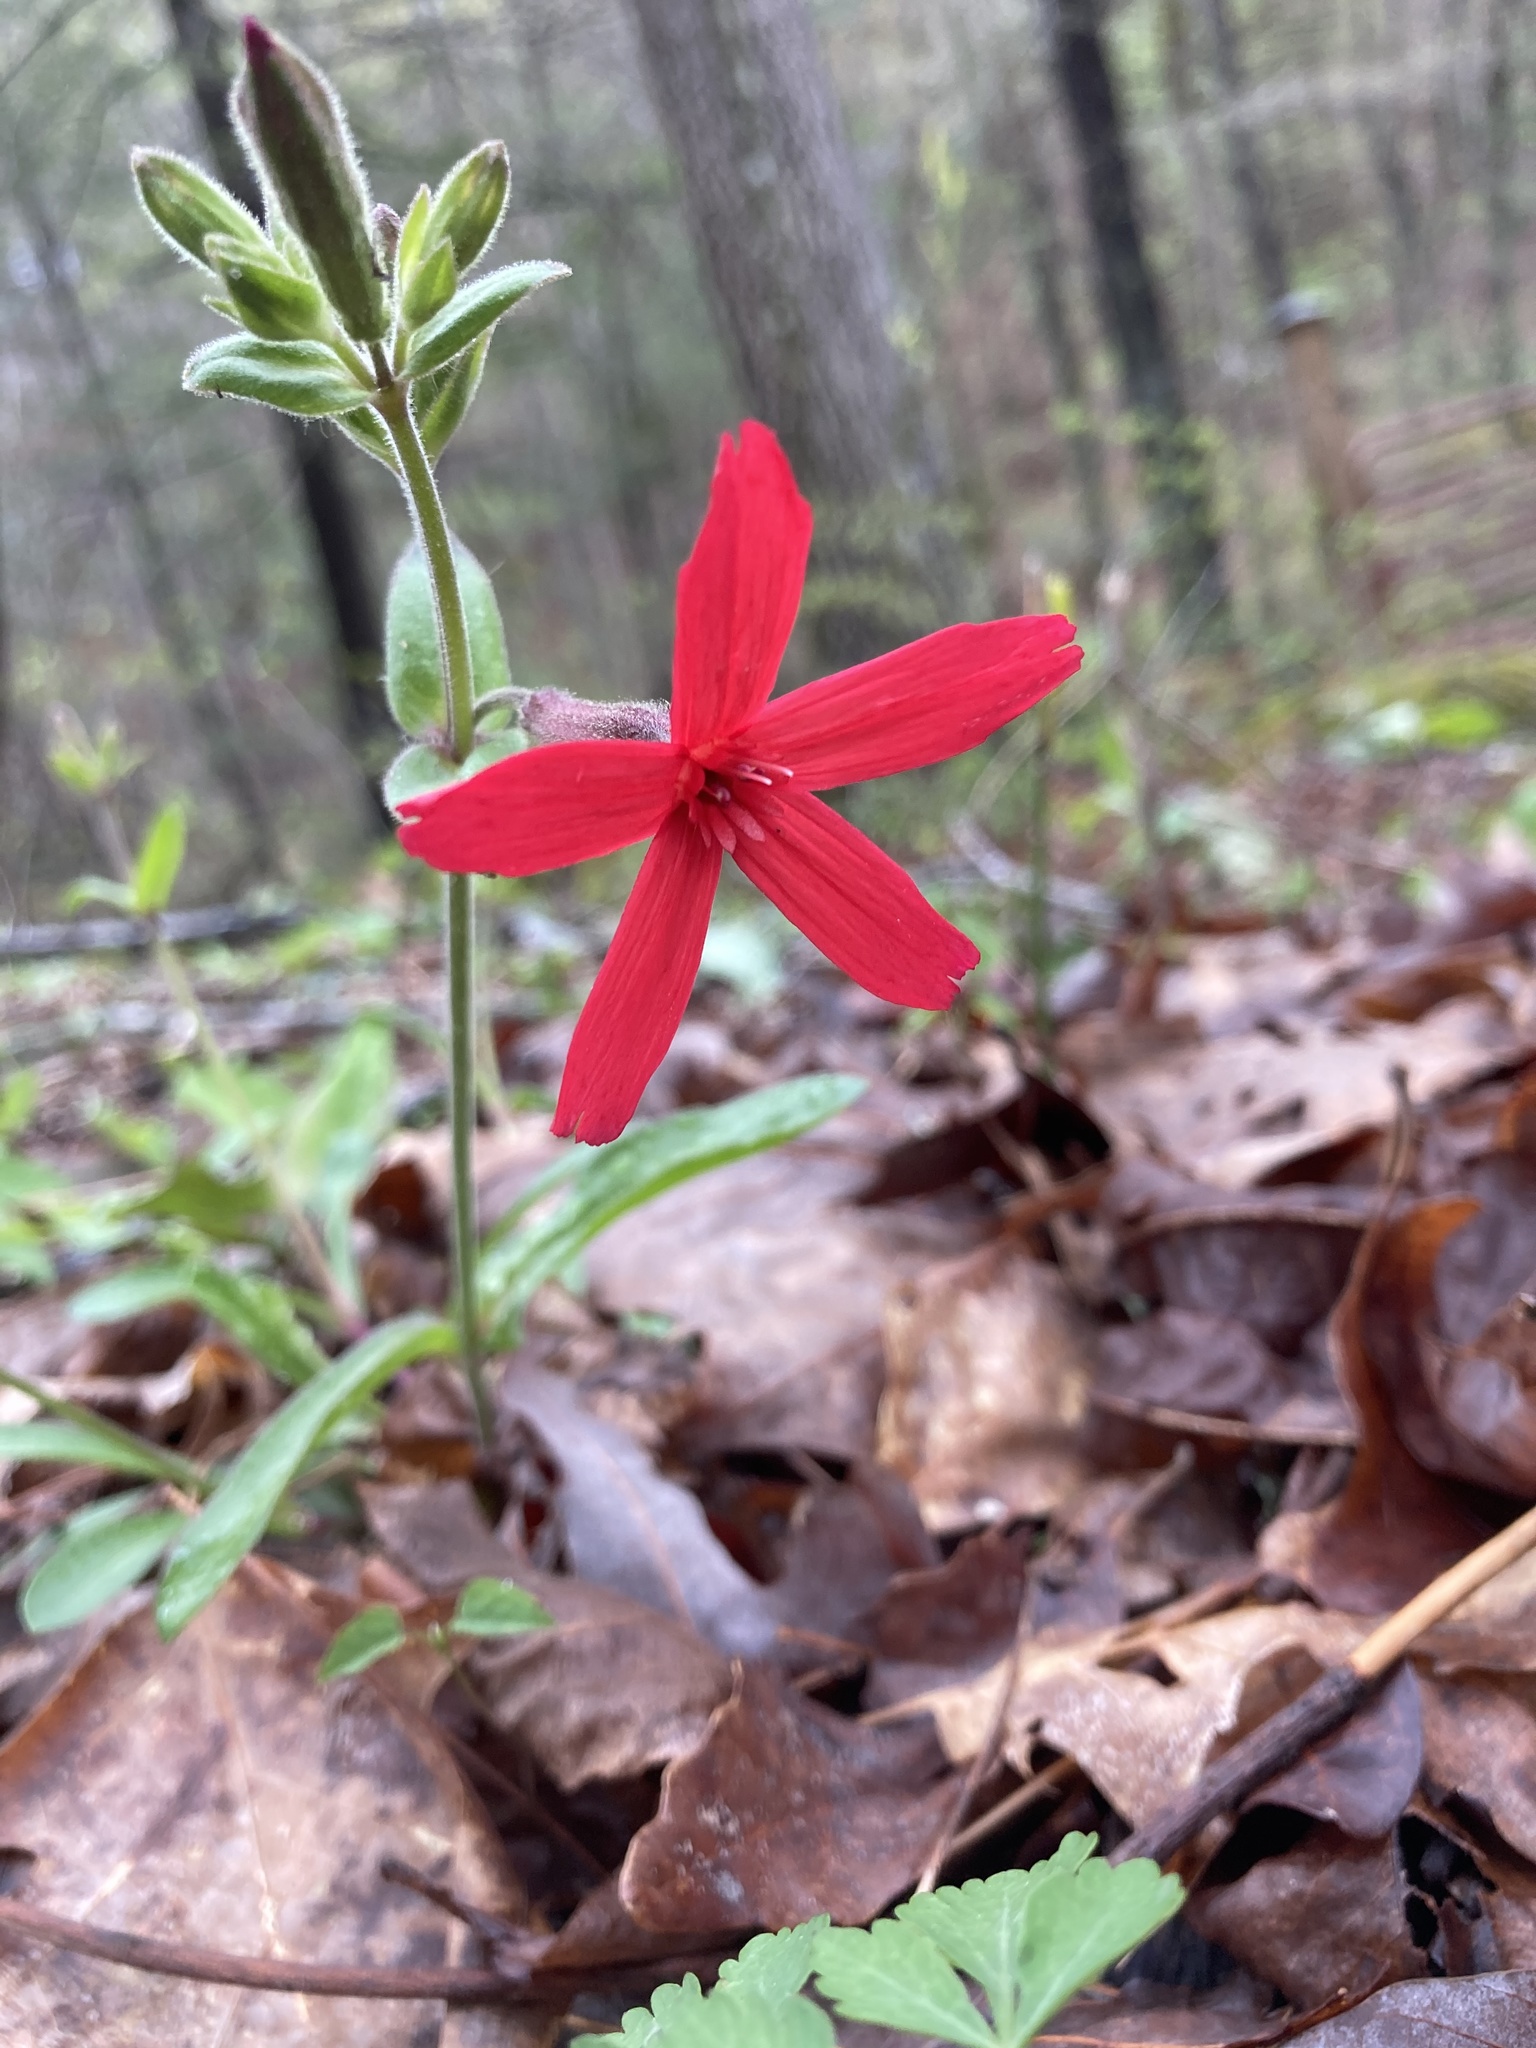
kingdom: Plantae
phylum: Tracheophyta
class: Magnoliopsida
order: Caryophyllales
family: Caryophyllaceae
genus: Silene
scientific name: Silene virginica
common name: Fire-pink
